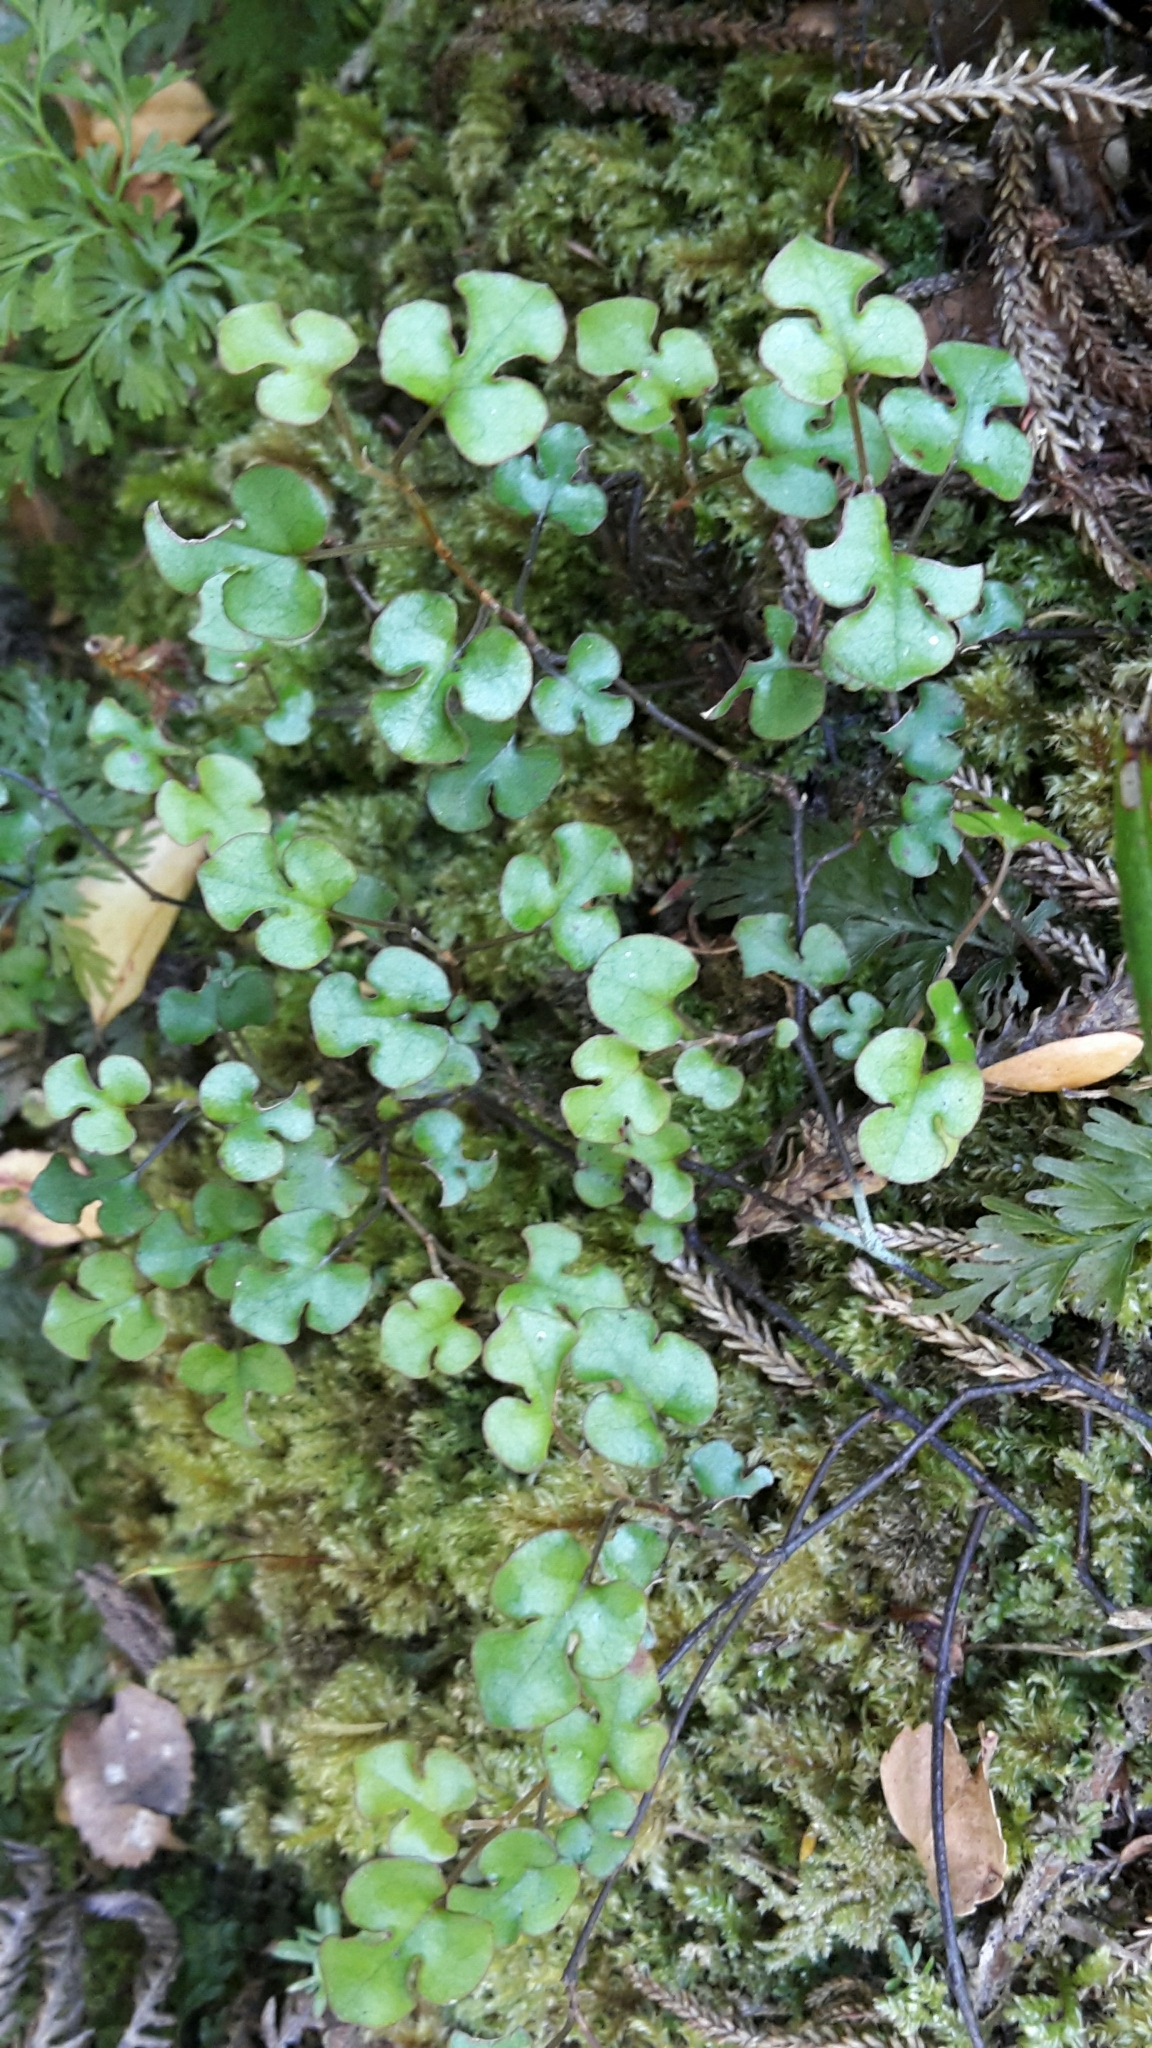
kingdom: Plantae
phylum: Tracheophyta
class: Magnoliopsida
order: Caryophyllales
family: Polygonaceae
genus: Muehlenbeckia
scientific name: Muehlenbeckia australis
